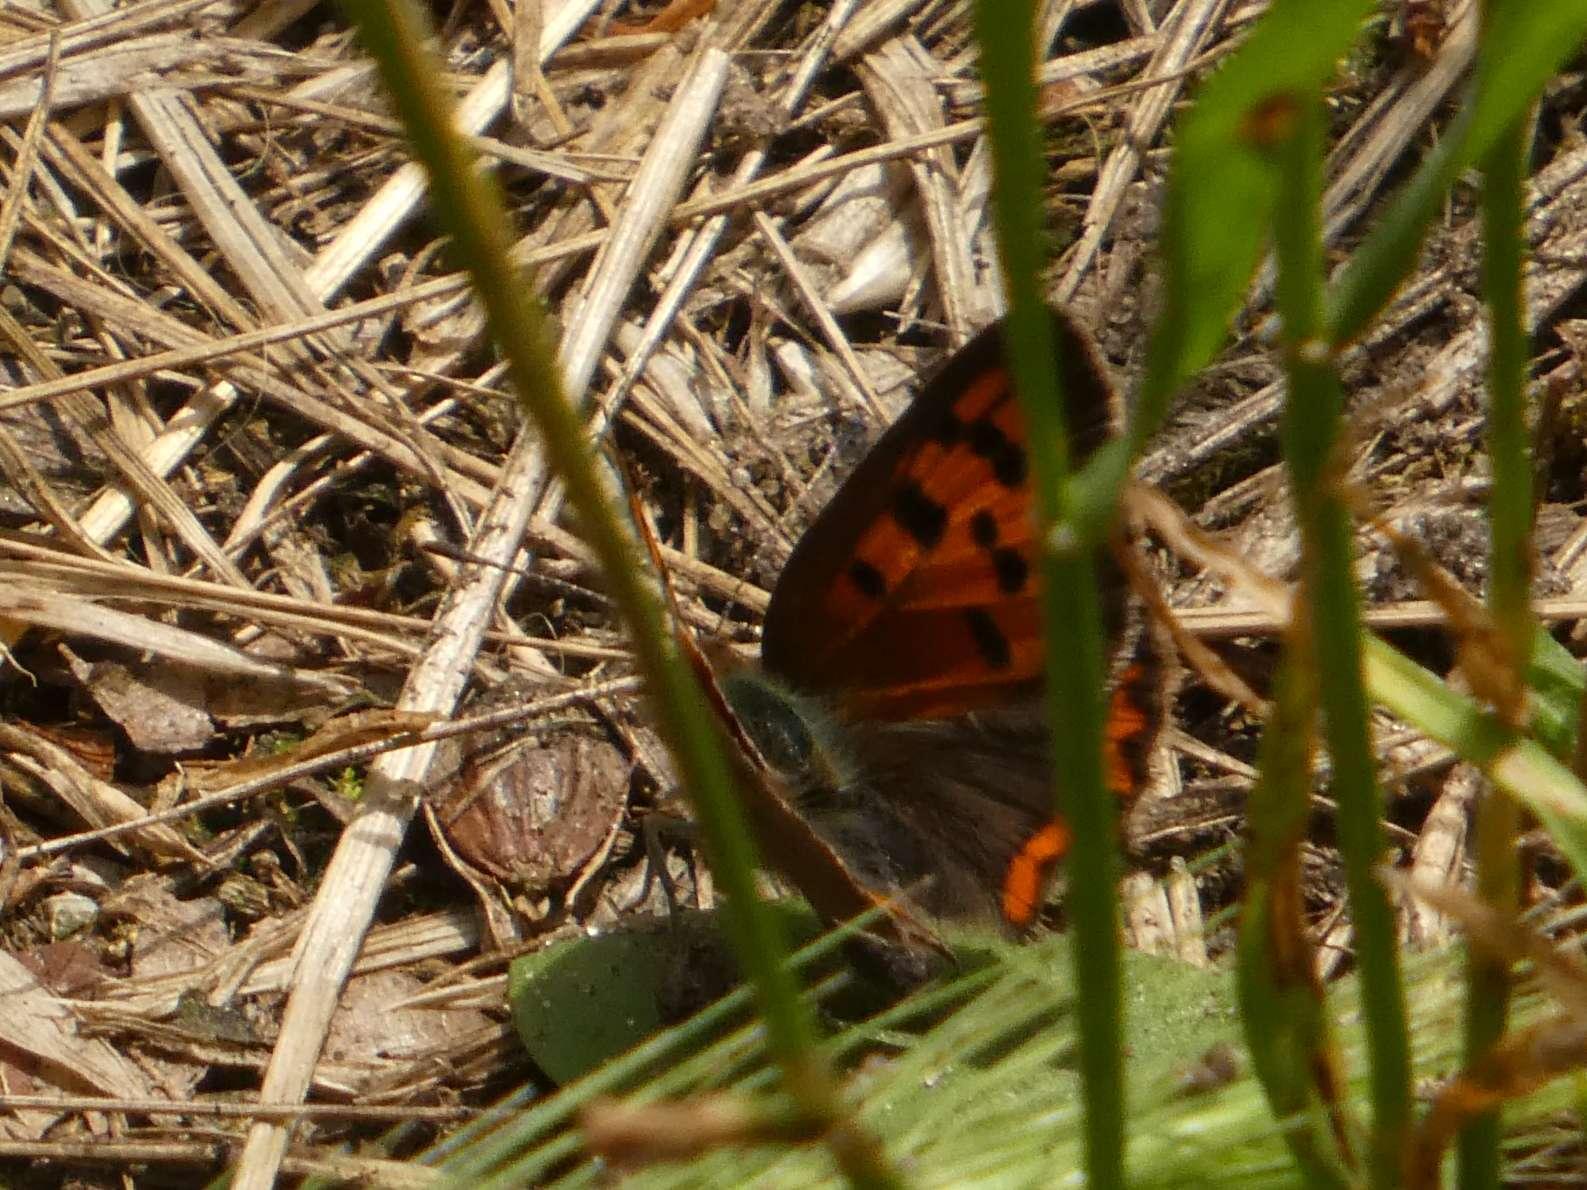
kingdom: Animalia
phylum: Arthropoda
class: Insecta
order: Lepidoptera
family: Lycaenidae
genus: Lycaena
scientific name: Lycaena phlaeas
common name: Small copper
